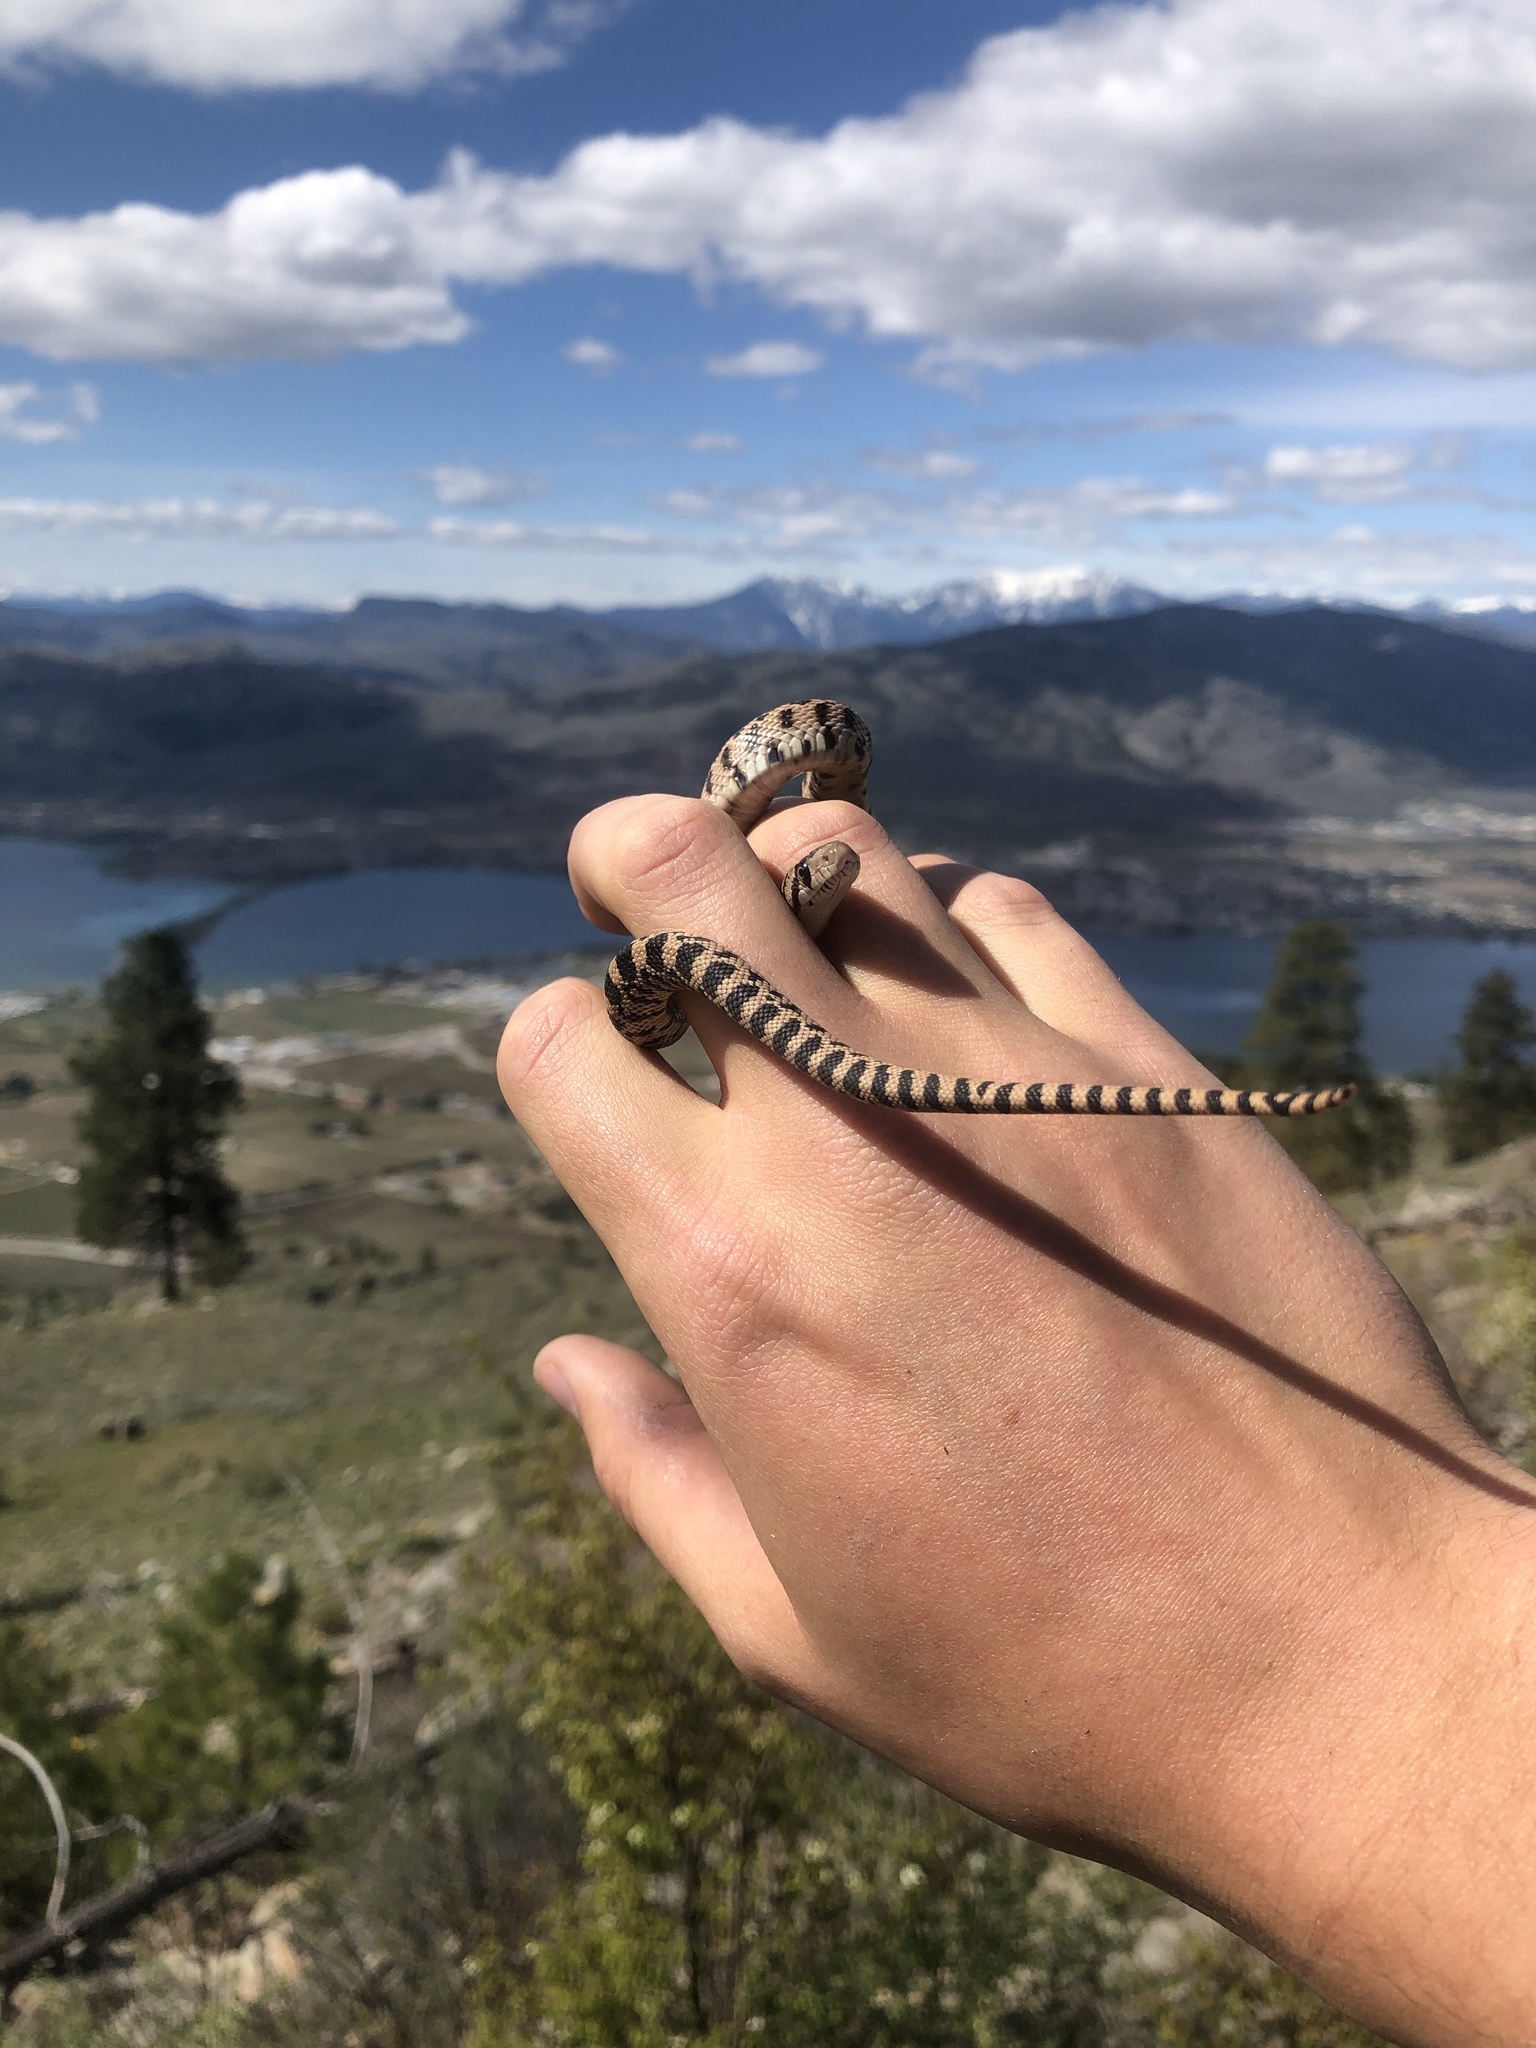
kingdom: Animalia
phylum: Chordata
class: Squamata
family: Colubridae
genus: Pituophis
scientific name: Pituophis catenifer
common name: Gopher snake
